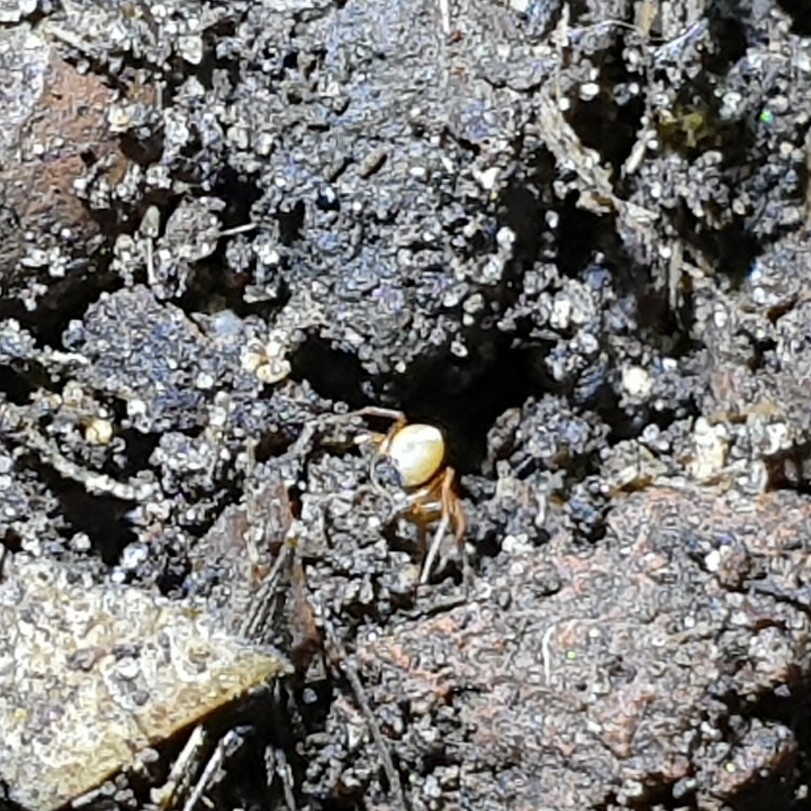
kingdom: Animalia
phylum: Arthropoda
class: Arachnida
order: Araneae
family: Oonopidae
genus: Triaeris
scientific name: Triaeris stenaspis
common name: Goblin spiders
